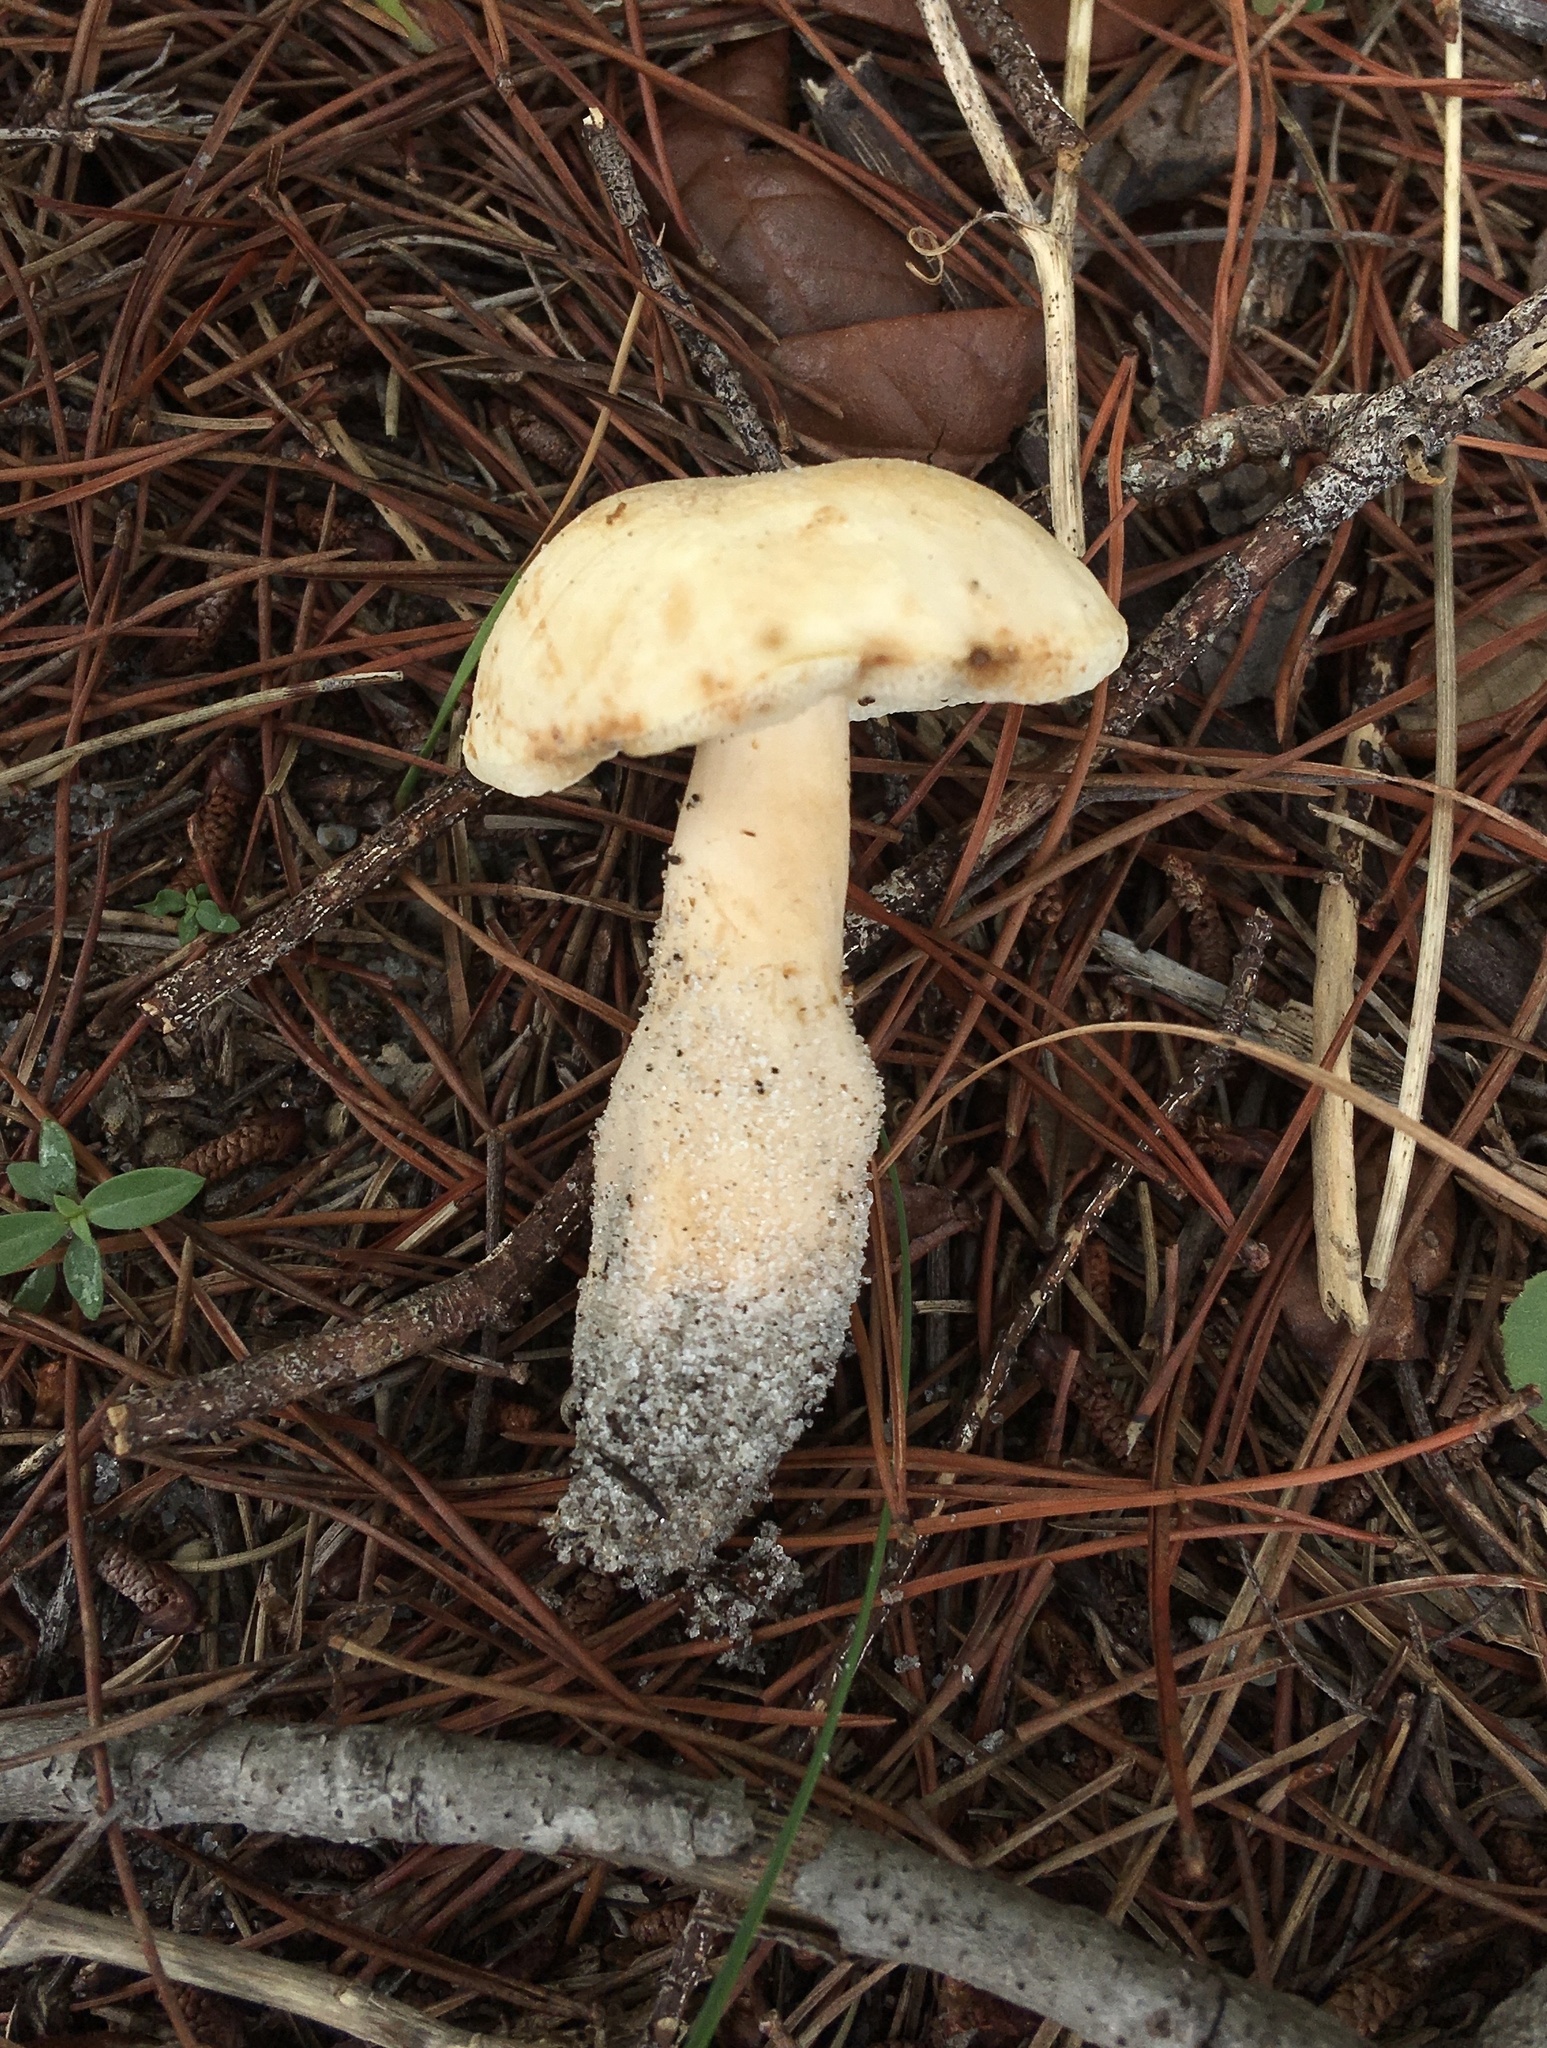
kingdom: Fungi
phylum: Basidiomycota
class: Agaricomycetes
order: Boletales
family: Gyroporaceae
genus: Gyroporus
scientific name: Gyroporus subalbellus
